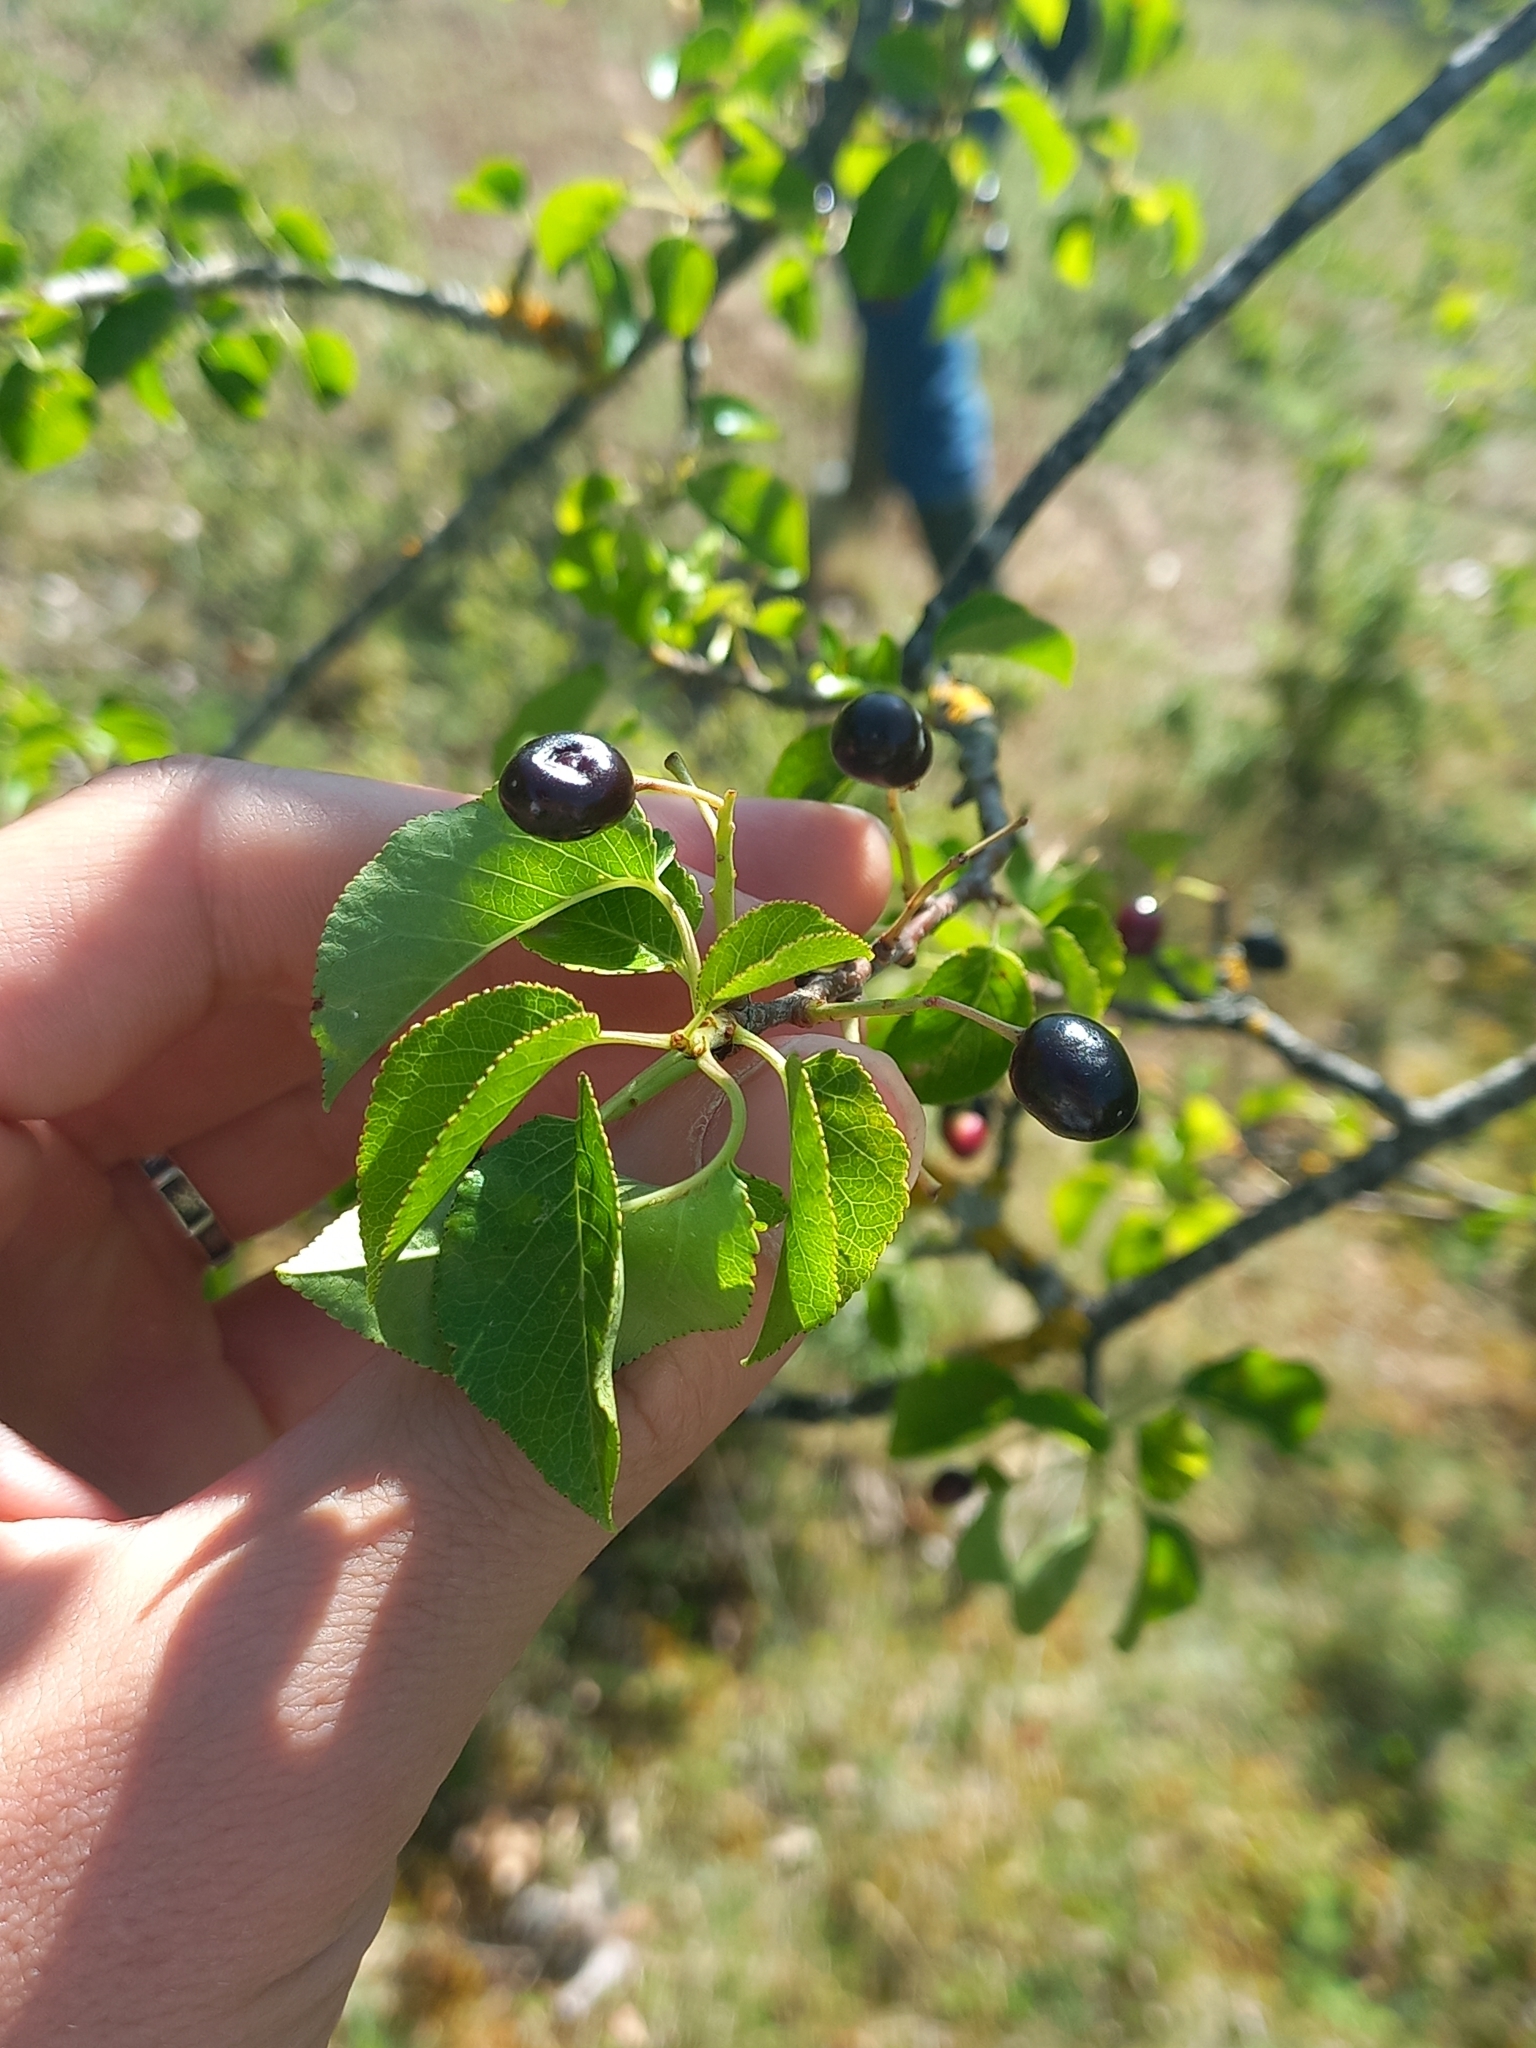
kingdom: Plantae
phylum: Tracheophyta
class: Magnoliopsida
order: Rosales
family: Rosaceae
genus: Prunus
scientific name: Prunus mahaleb
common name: Mahaleb cherry
